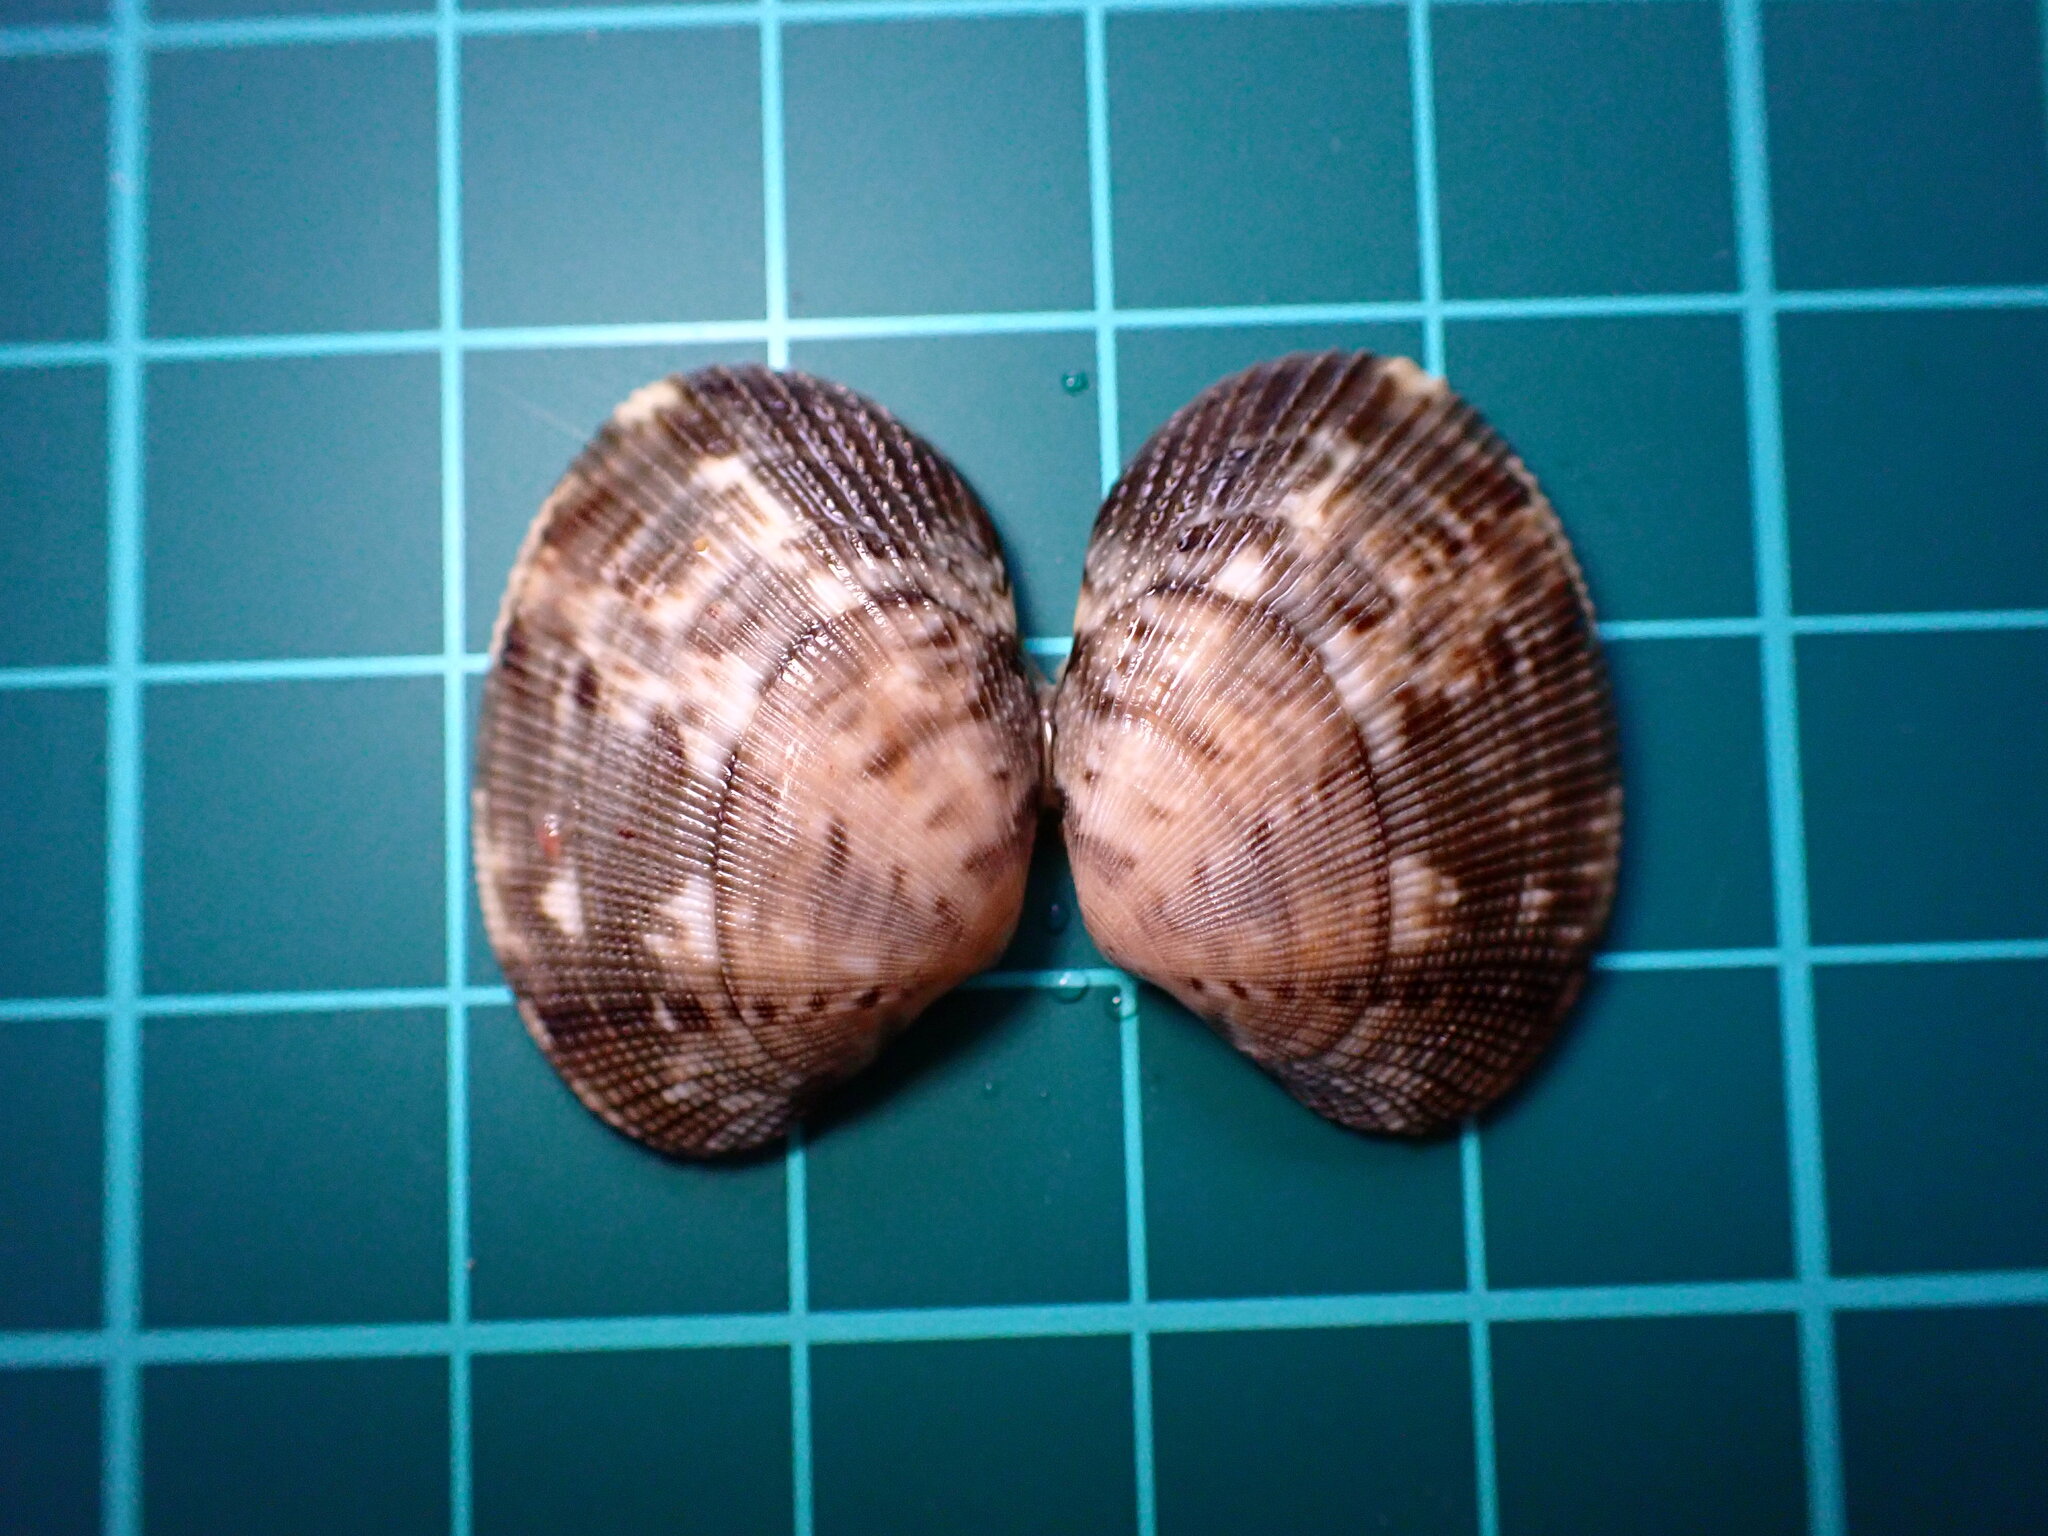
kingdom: Animalia
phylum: Mollusca
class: Bivalvia
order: Venerida
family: Veneridae
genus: Ruditapes
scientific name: Ruditapes philippinarum
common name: Manila clam
